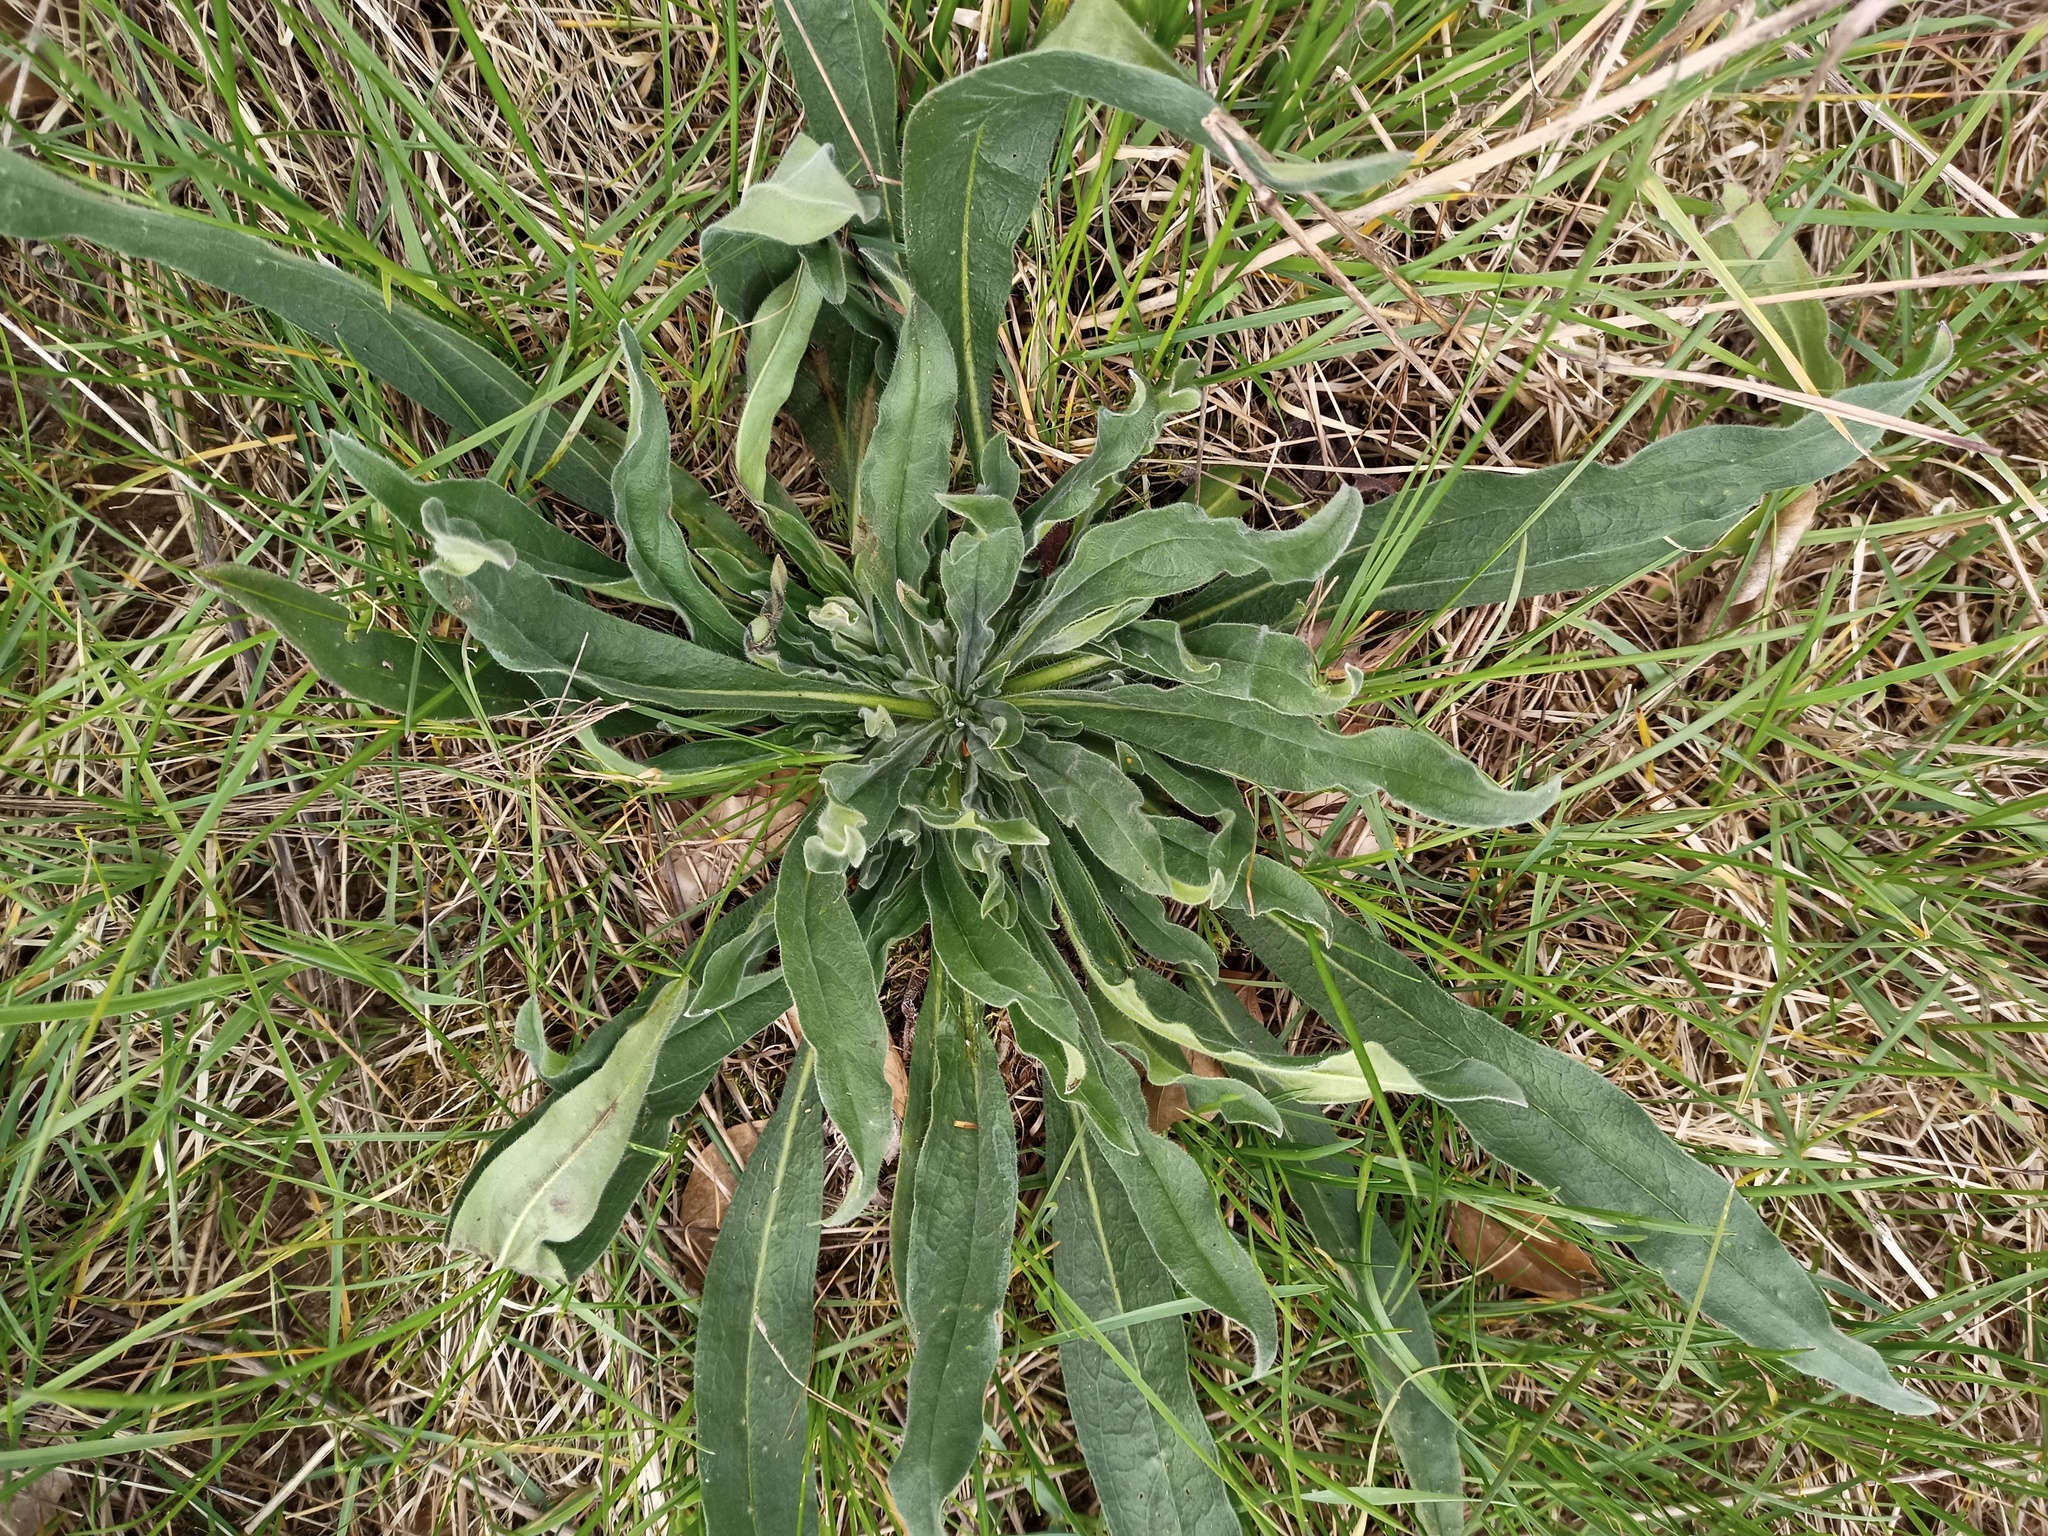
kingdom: Plantae
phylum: Tracheophyta
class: Magnoliopsida
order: Boraginales
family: Boraginaceae
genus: Echium
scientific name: Echium vulgare
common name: Common viper's bugloss
